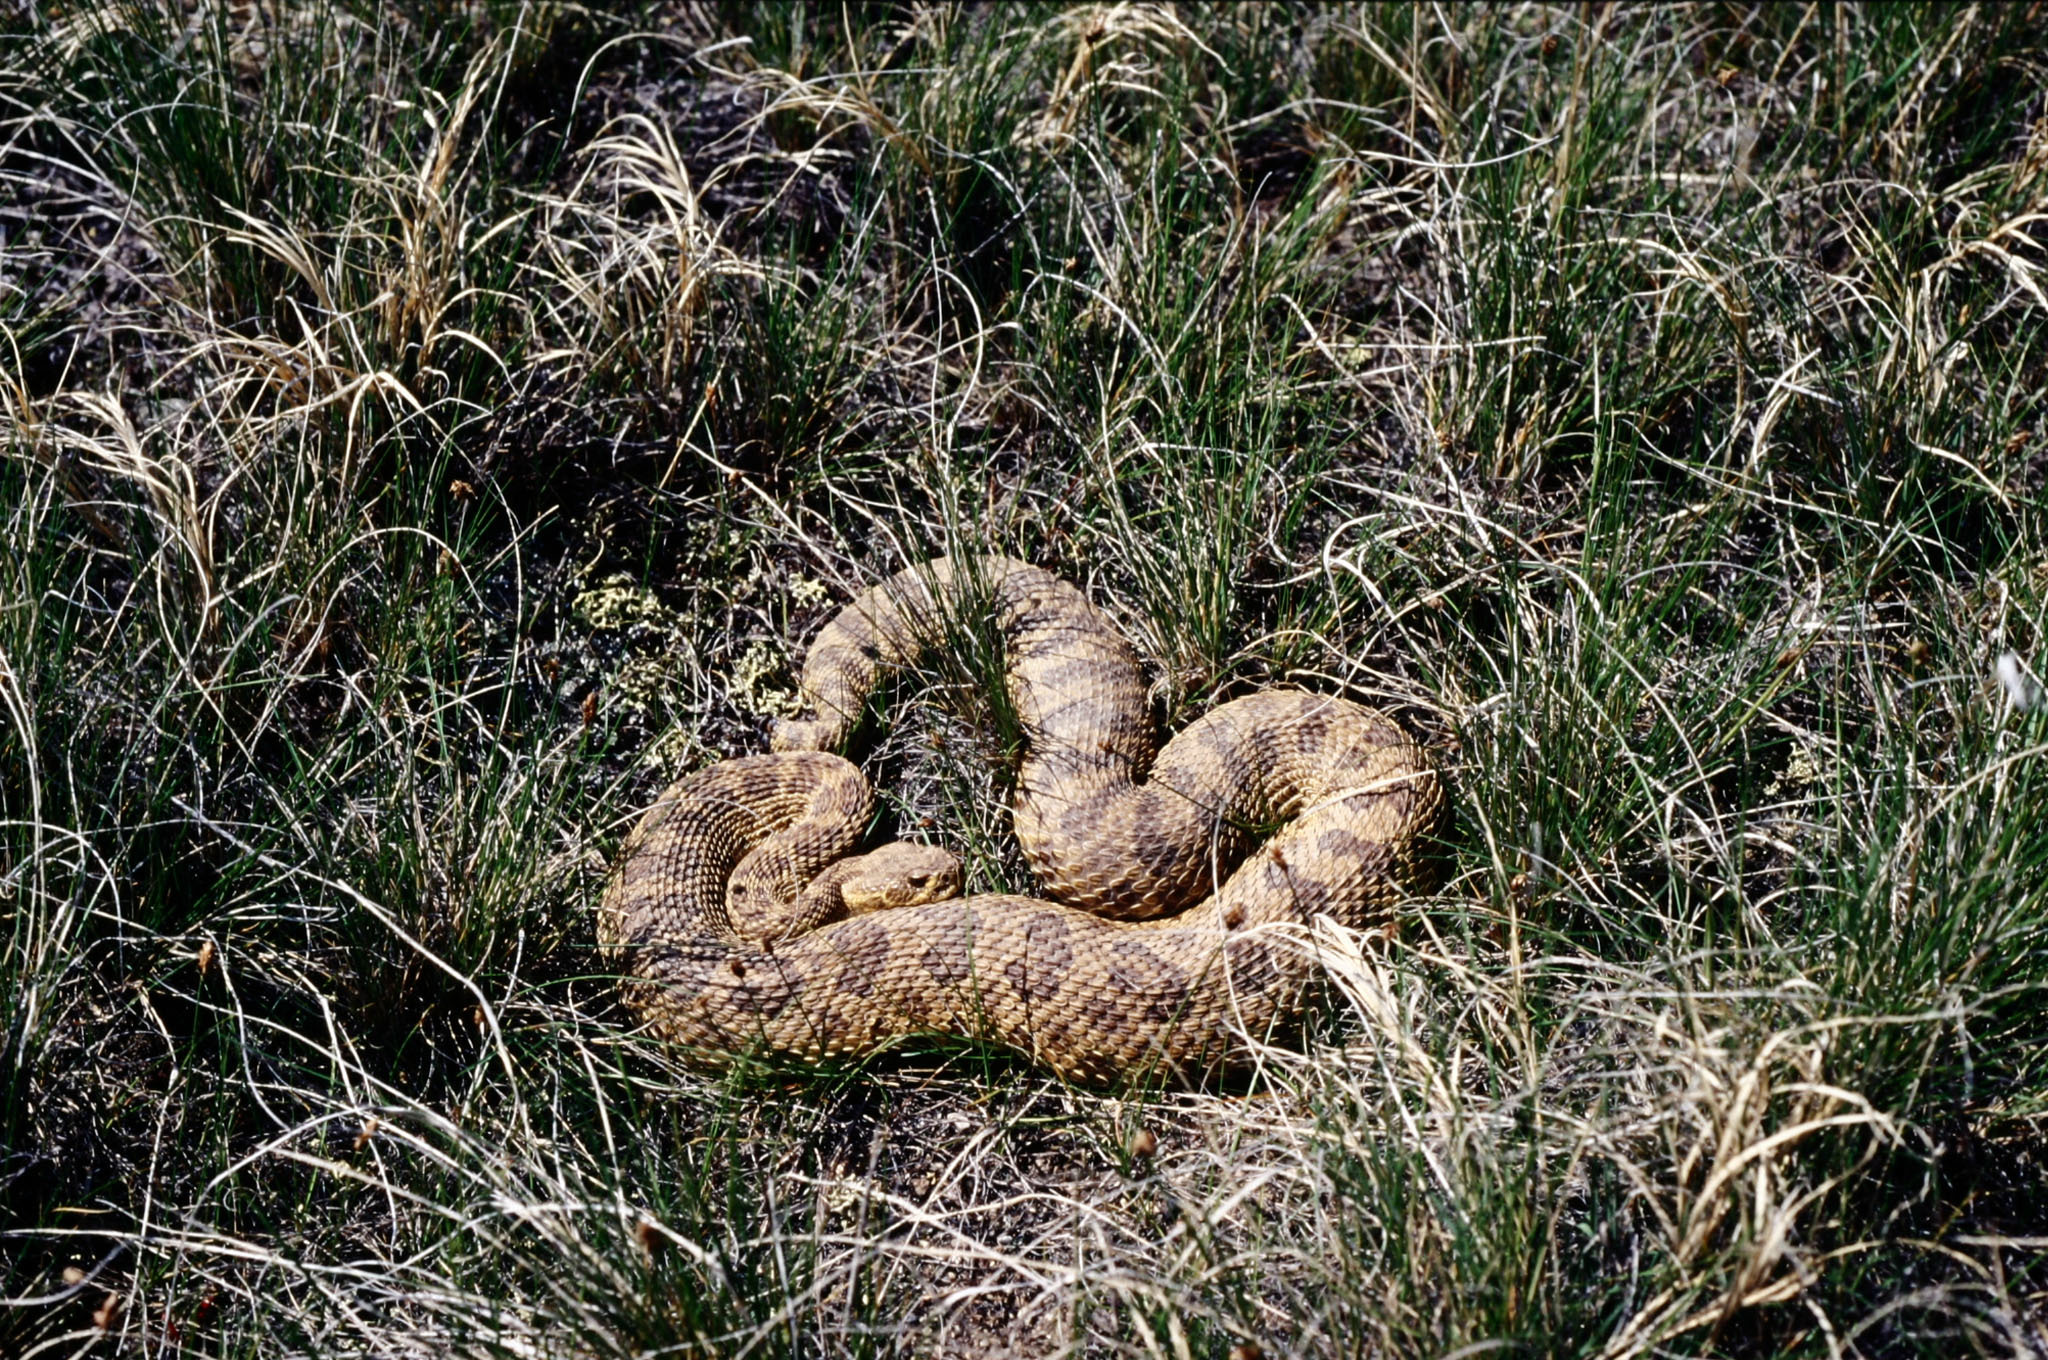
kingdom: Animalia
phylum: Chordata
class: Squamata
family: Viperidae
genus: Crotalus
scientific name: Crotalus viridis
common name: Prairie rattlesnake
